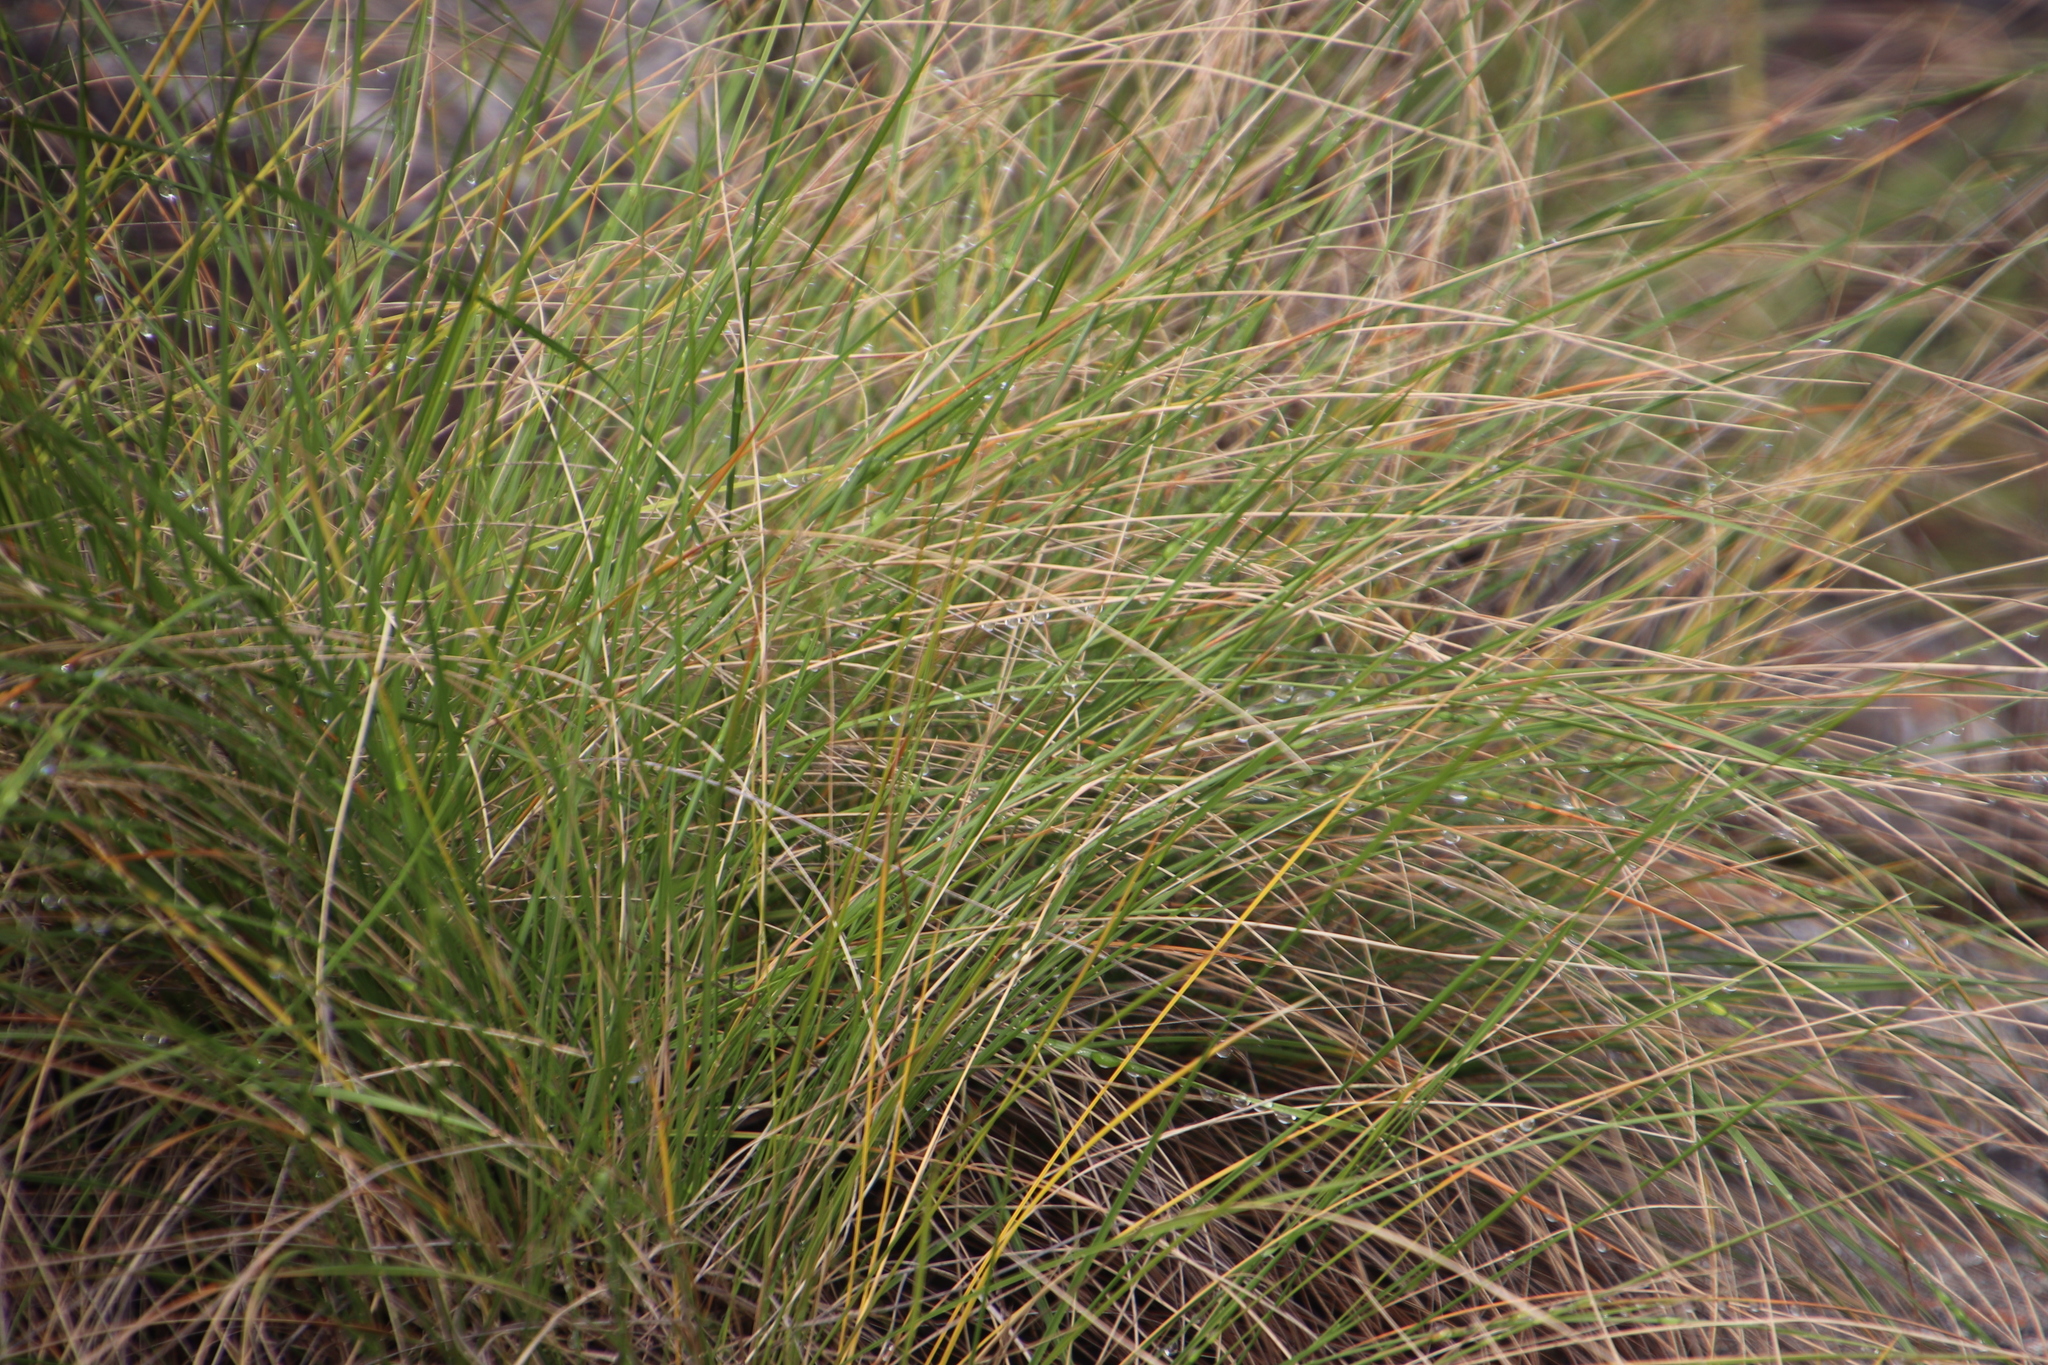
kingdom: Plantae
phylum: Tracheophyta
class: Liliopsida
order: Poales
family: Cyperaceae
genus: Coleochloa
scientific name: Coleochloa setifera
